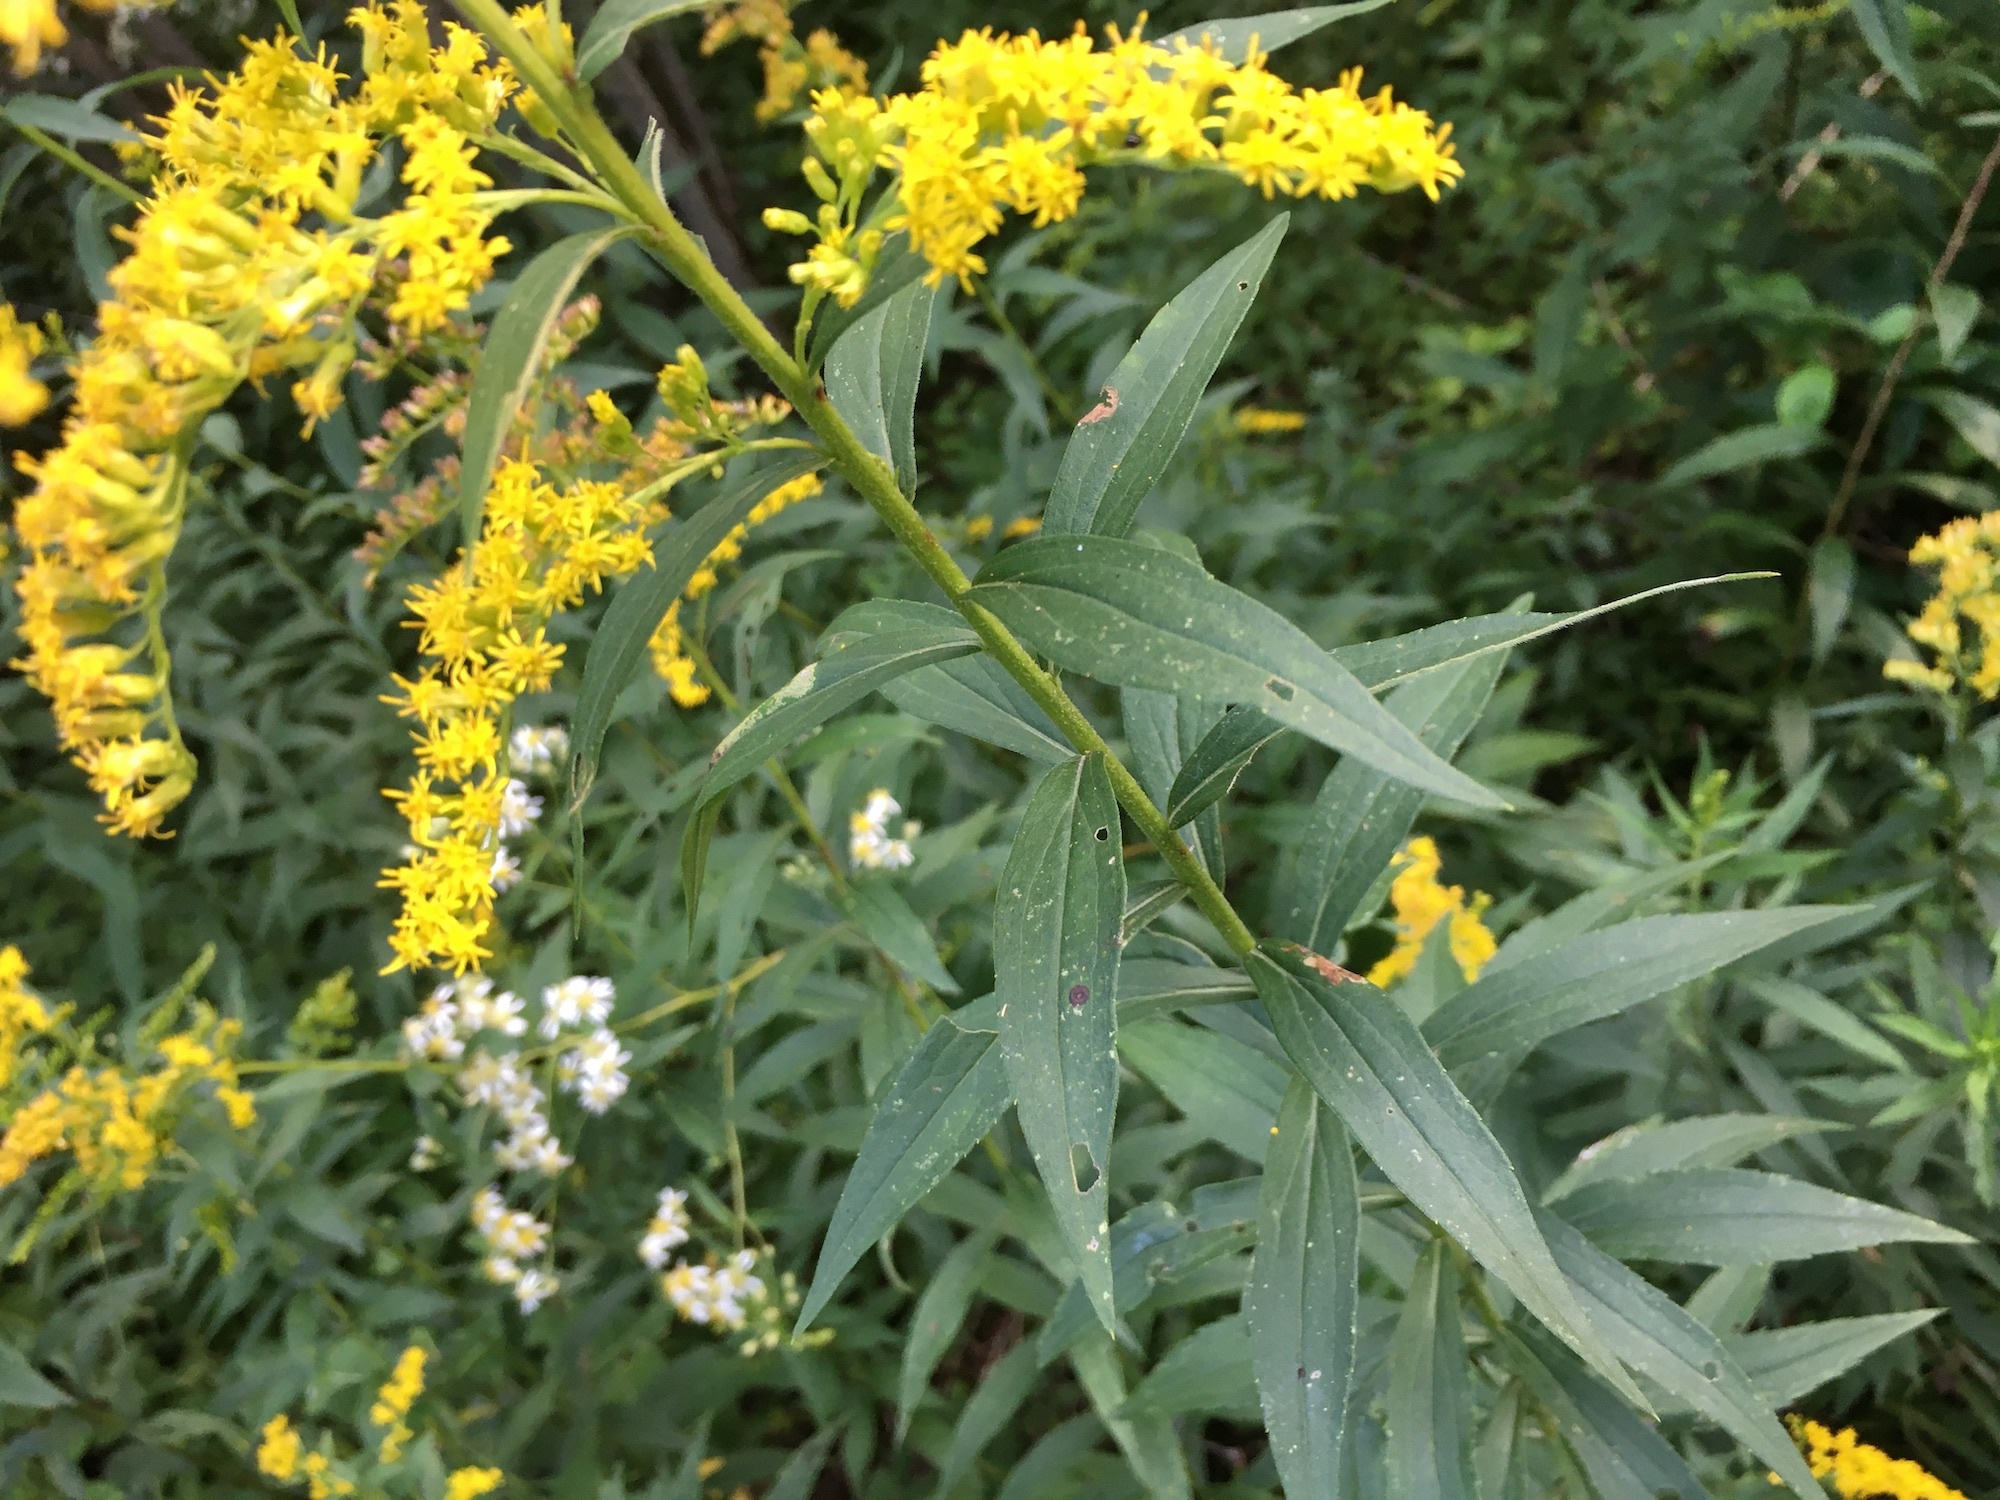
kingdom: Plantae
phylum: Tracheophyta
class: Magnoliopsida
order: Asterales
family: Asteraceae
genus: Solidago
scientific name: Solidago altissima
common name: Late goldenrod
